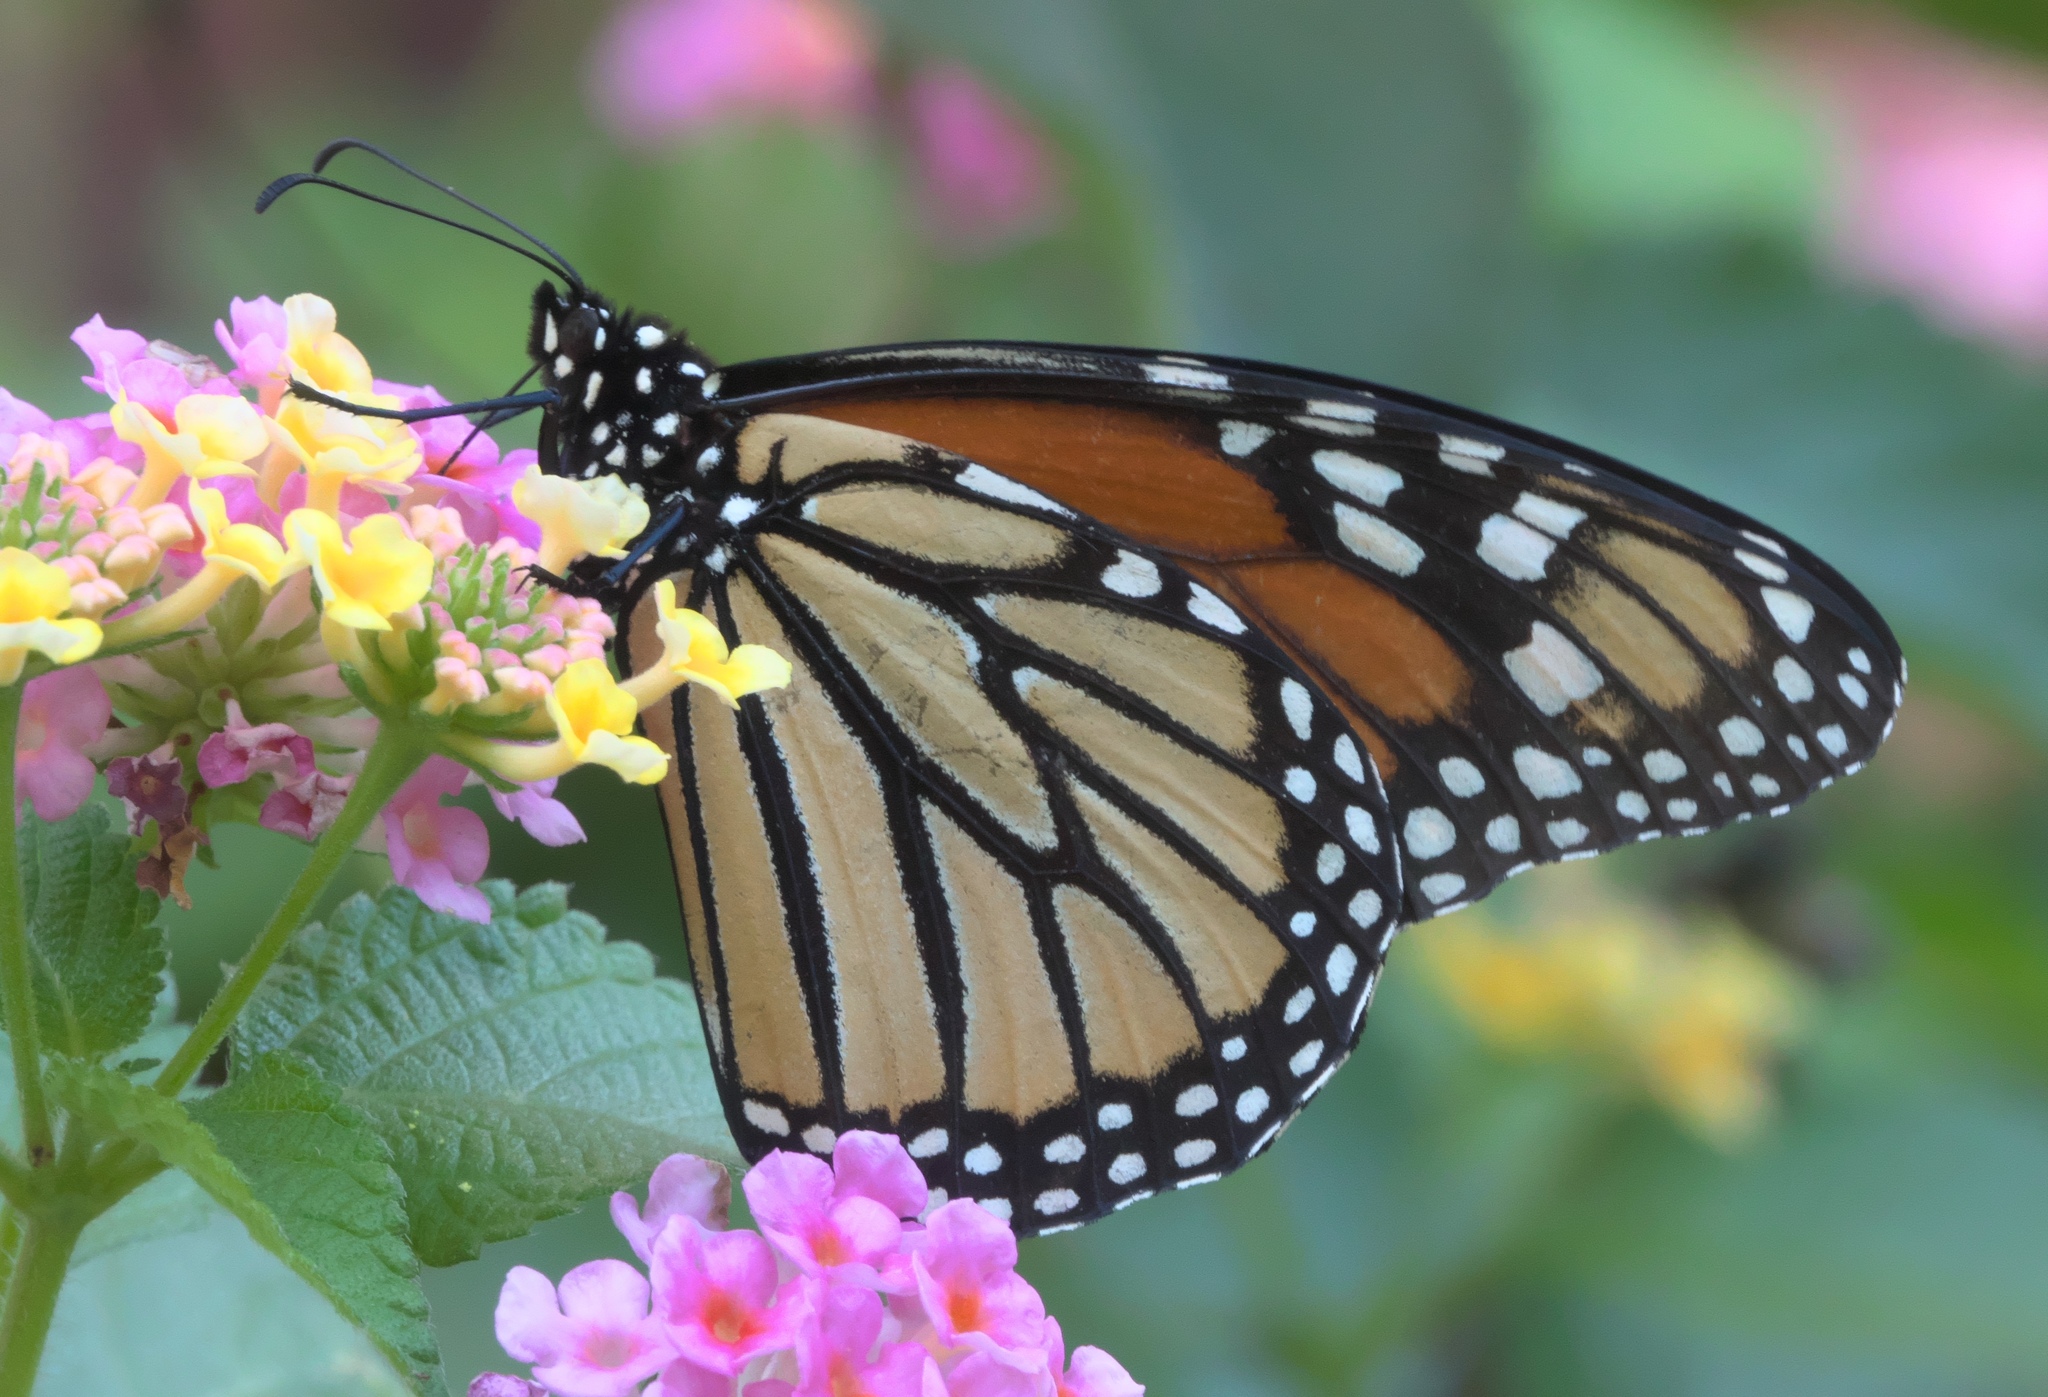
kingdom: Animalia
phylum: Arthropoda
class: Insecta
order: Lepidoptera
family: Nymphalidae
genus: Danaus
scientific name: Danaus plexippus
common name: Monarch
